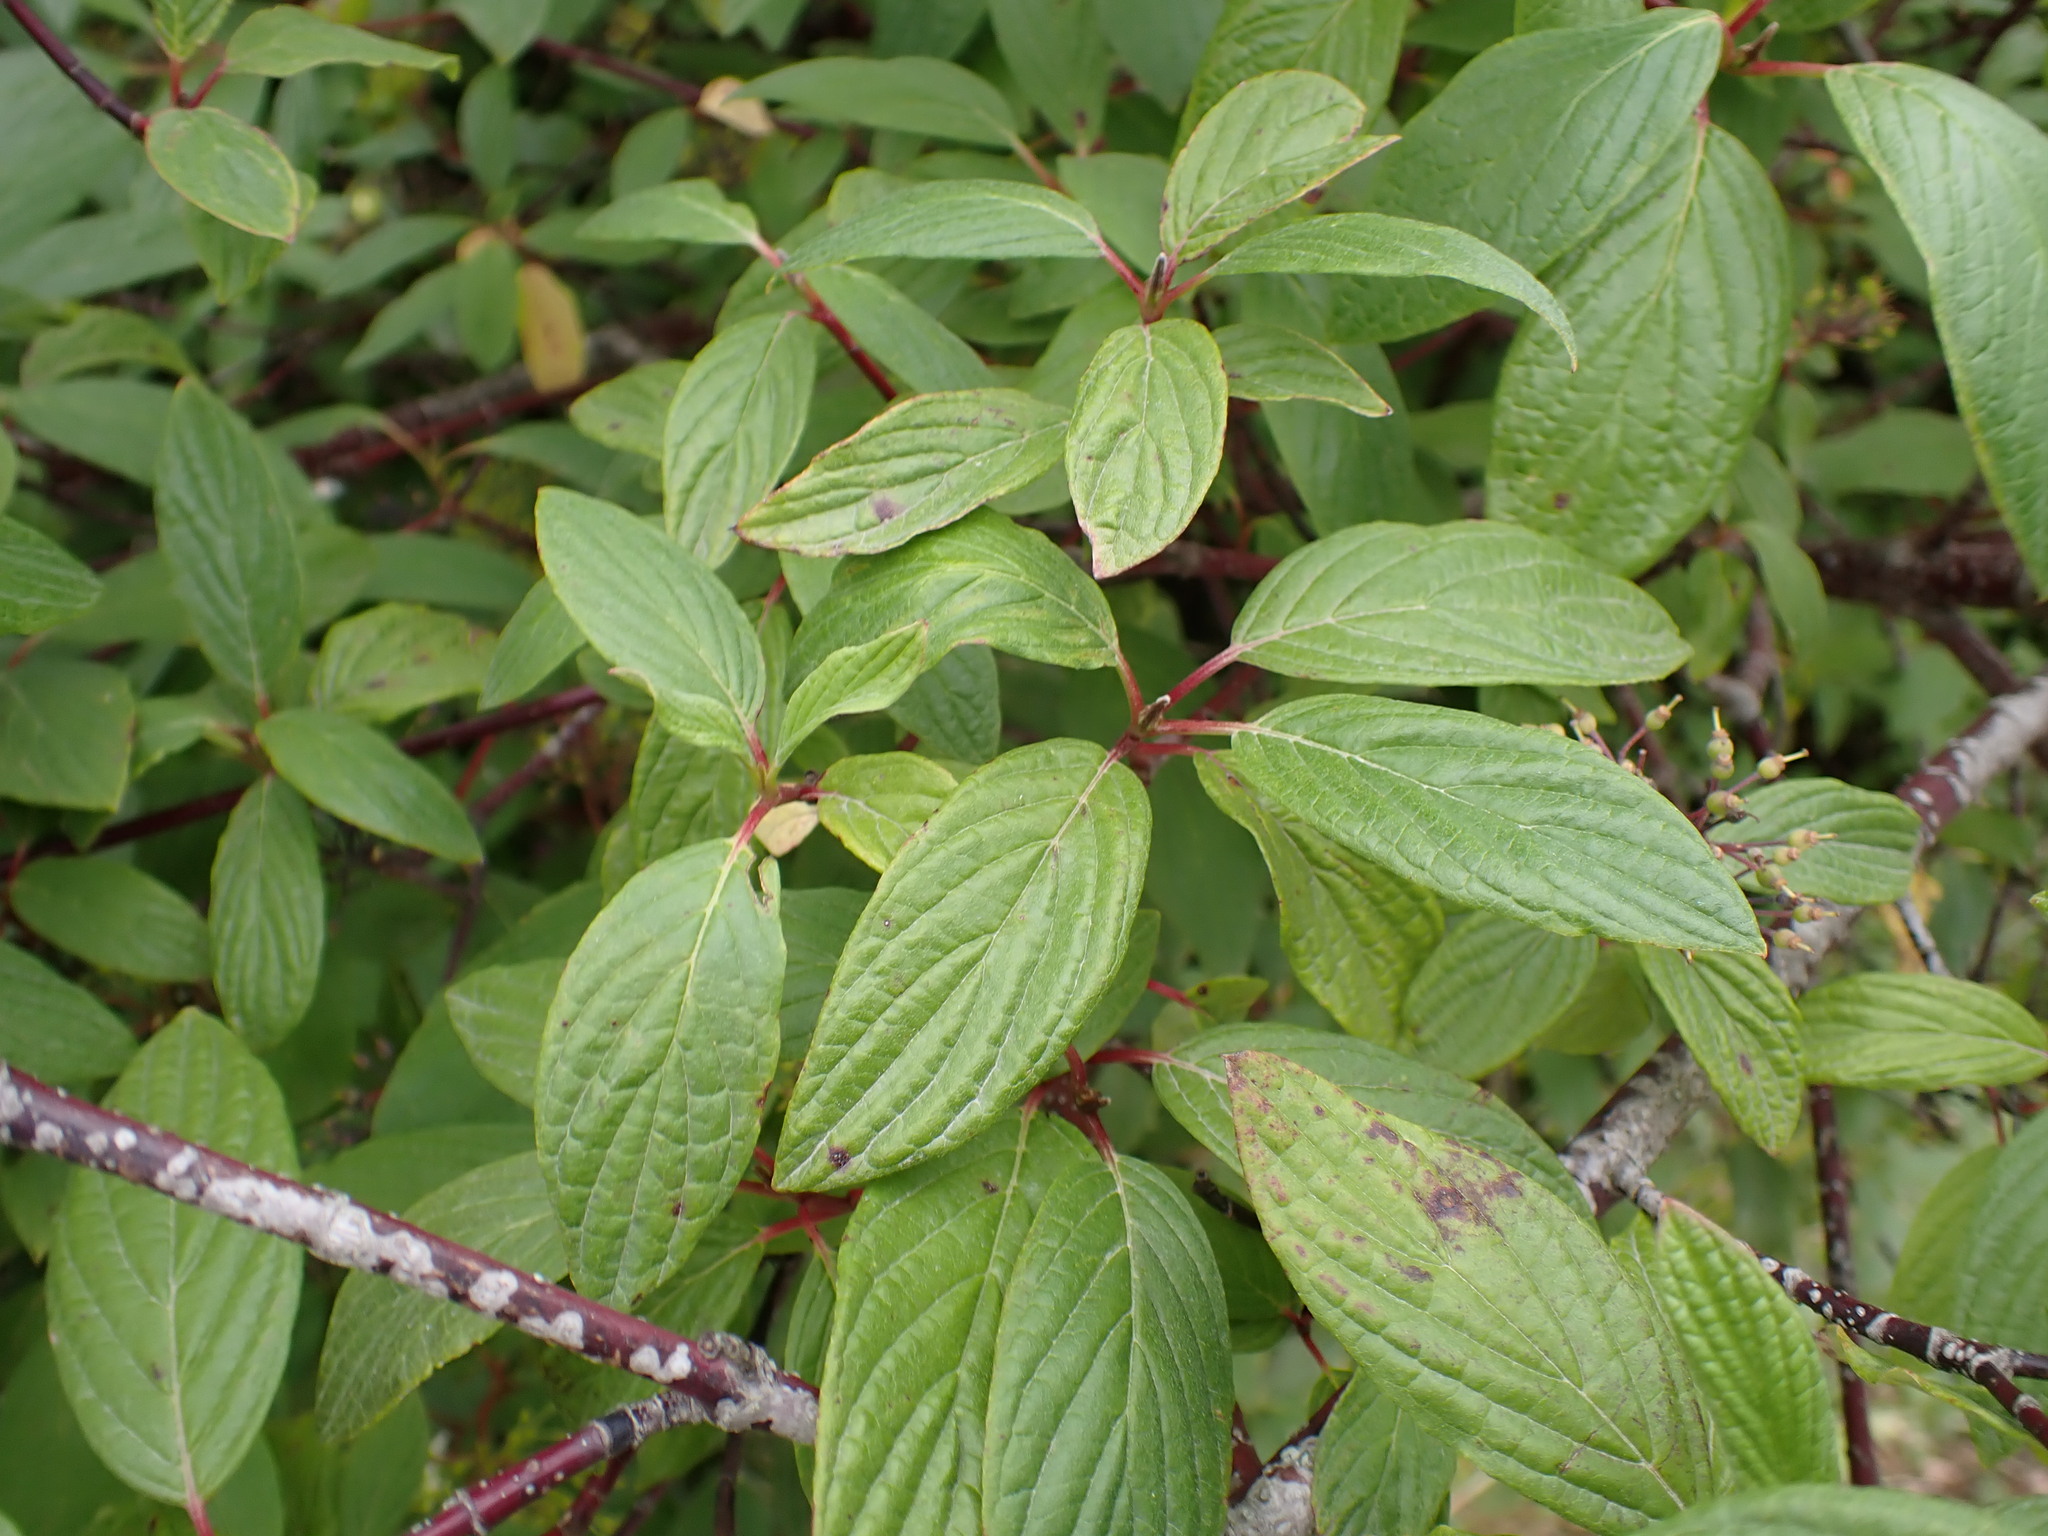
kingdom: Plantae
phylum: Tracheophyta
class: Magnoliopsida
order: Cornales
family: Cornaceae
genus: Cornus
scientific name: Cornus sericea
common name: Red-osier dogwood
